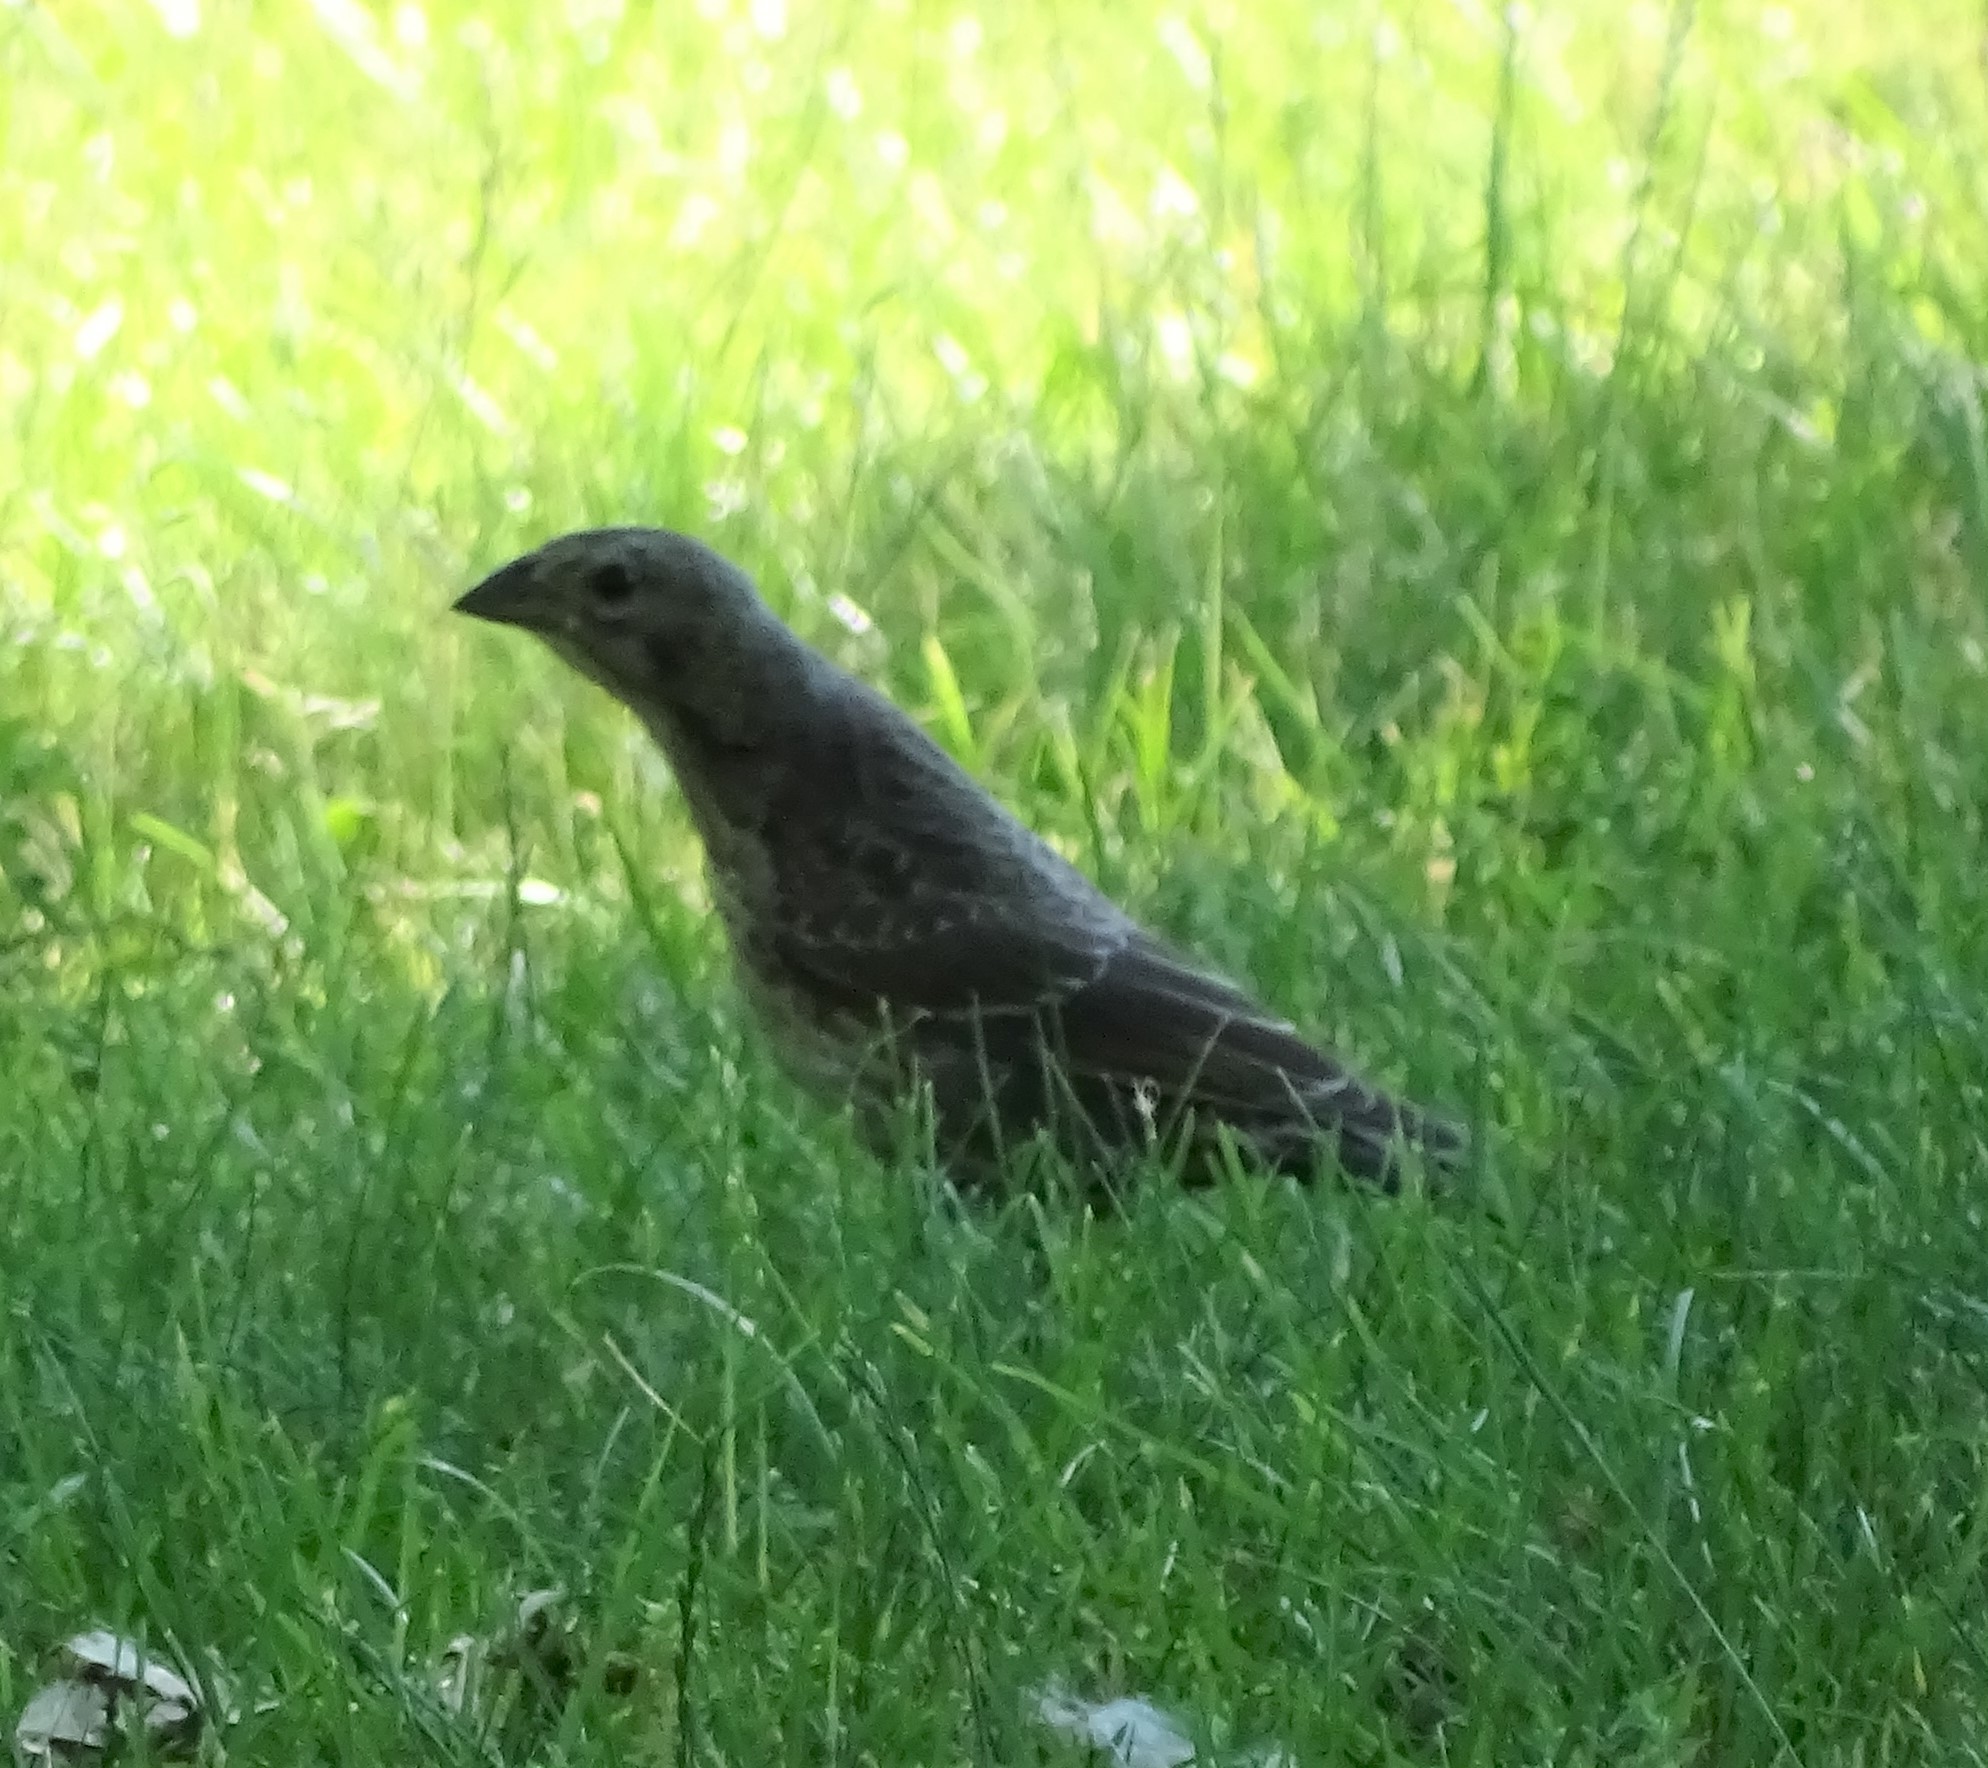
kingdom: Animalia
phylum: Chordata
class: Aves
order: Passeriformes
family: Icteridae
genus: Molothrus
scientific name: Molothrus ater
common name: Brown-headed cowbird
